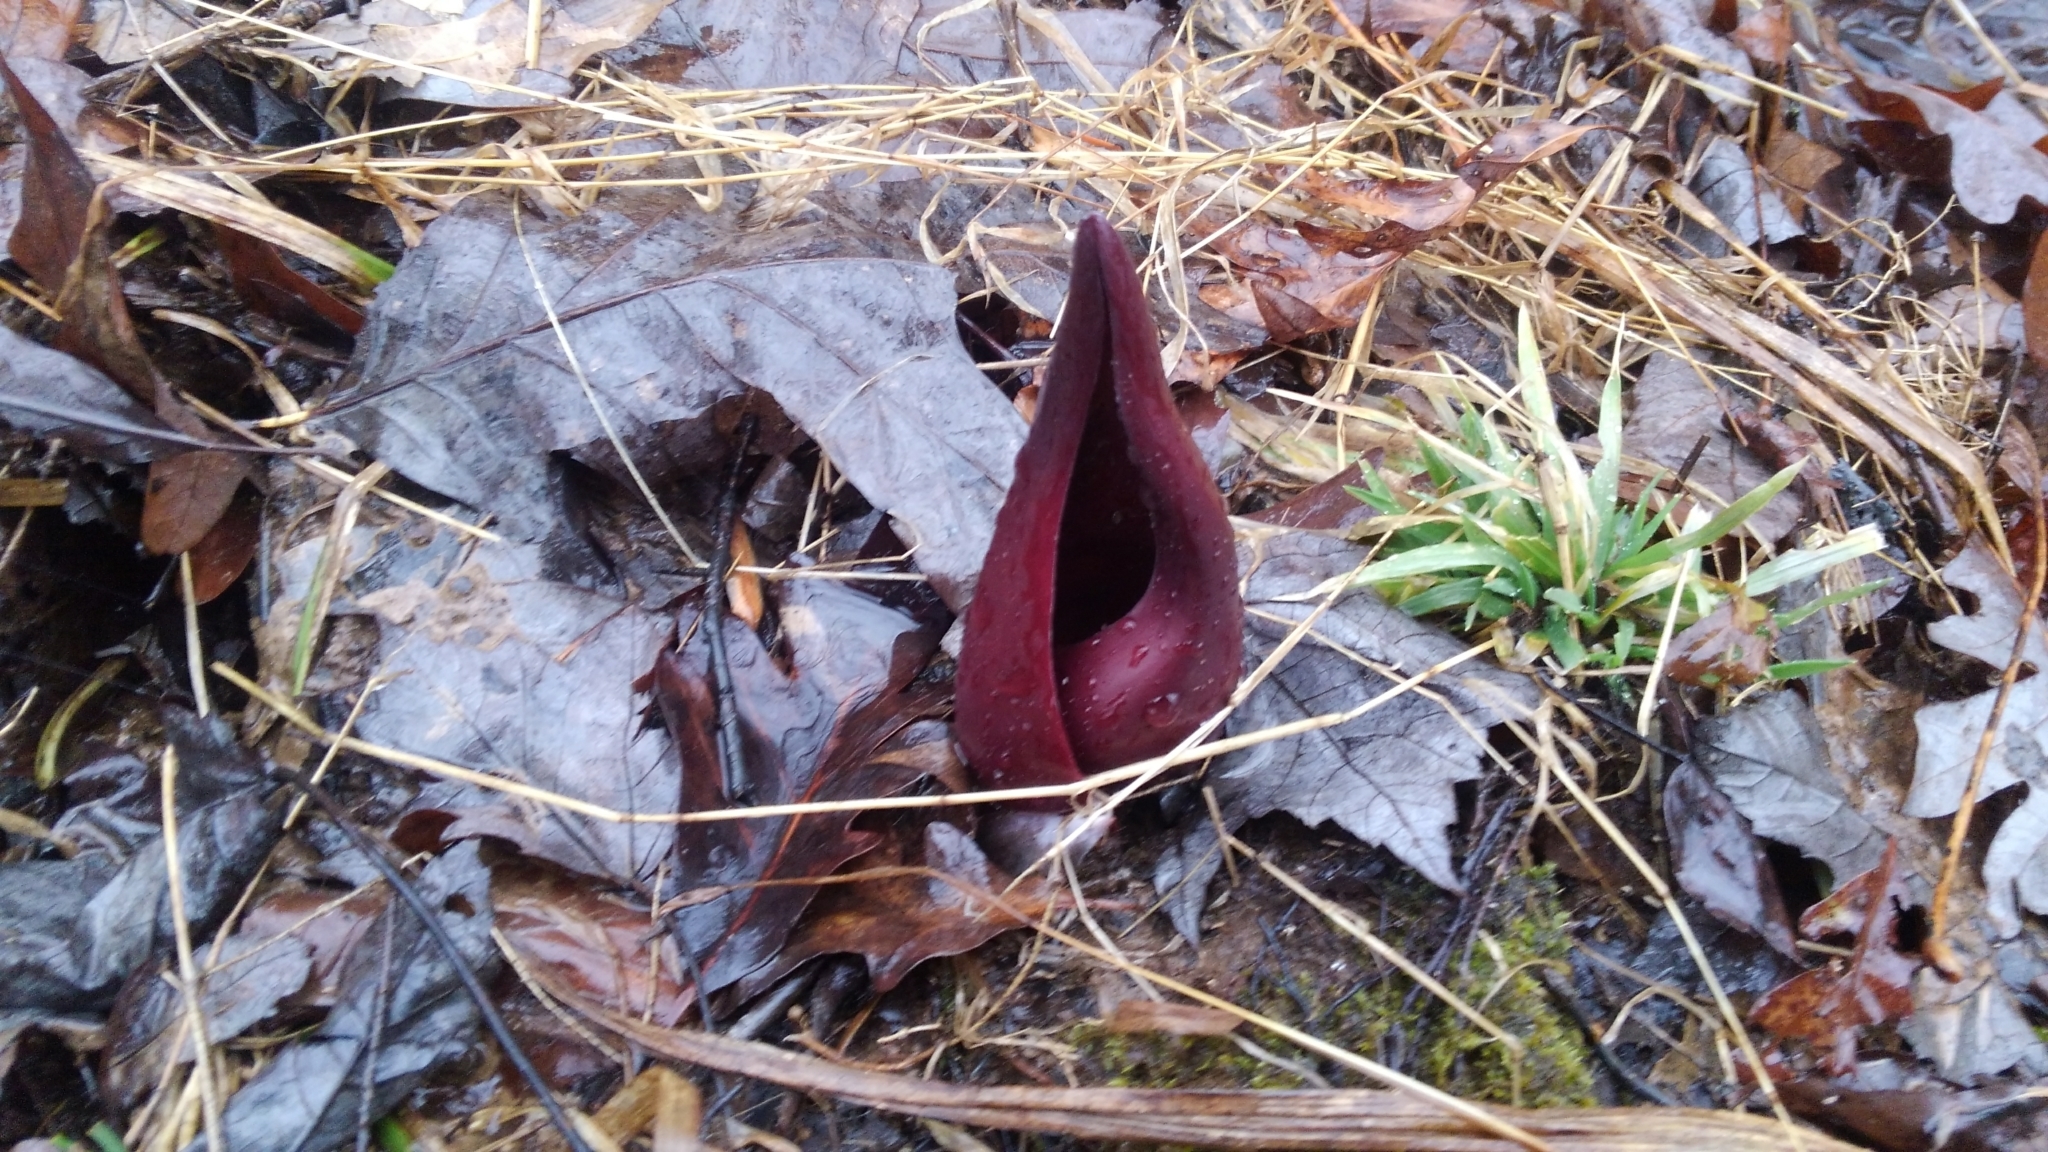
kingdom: Plantae
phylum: Tracheophyta
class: Liliopsida
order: Alismatales
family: Araceae
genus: Symplocarpus
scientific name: Symplocarpus foetidus
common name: Eastern skunk cabbage
